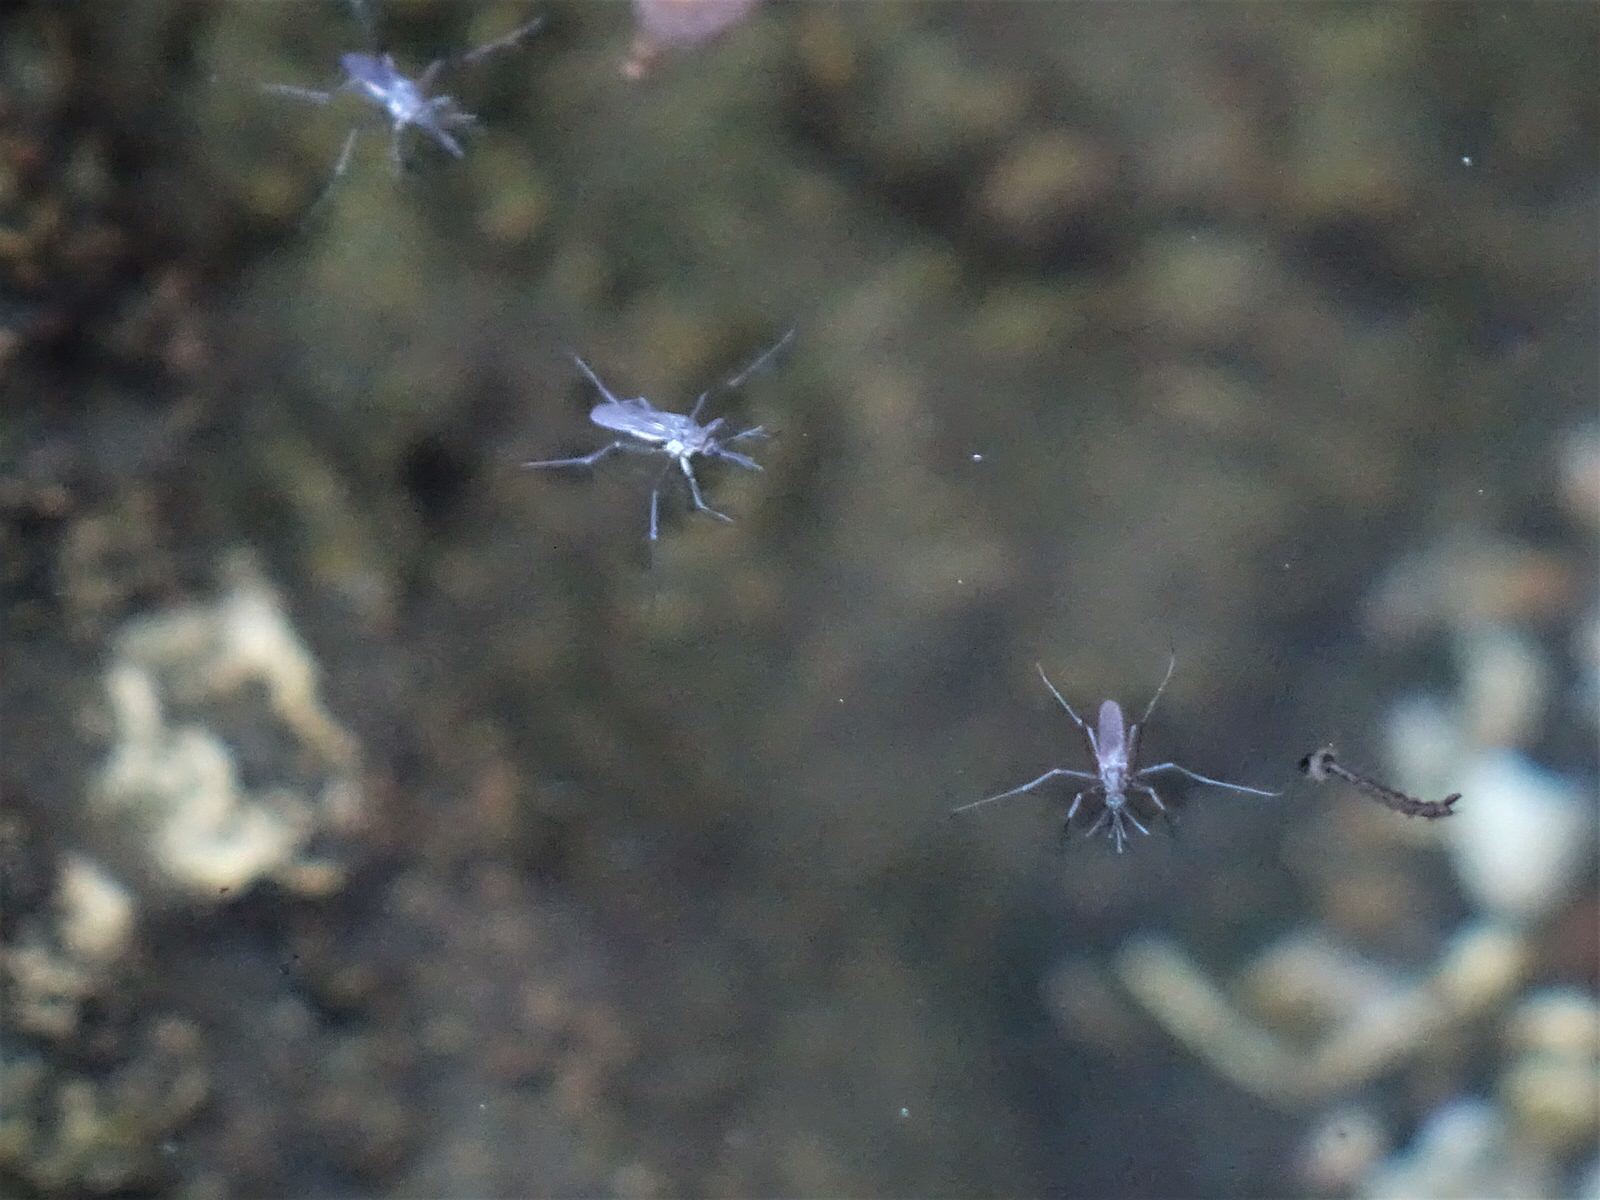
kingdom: Animalia
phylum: Arthropoda
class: Insecta
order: Diptera
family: Culicidae
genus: Opifex
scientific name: Opifex fuscus
